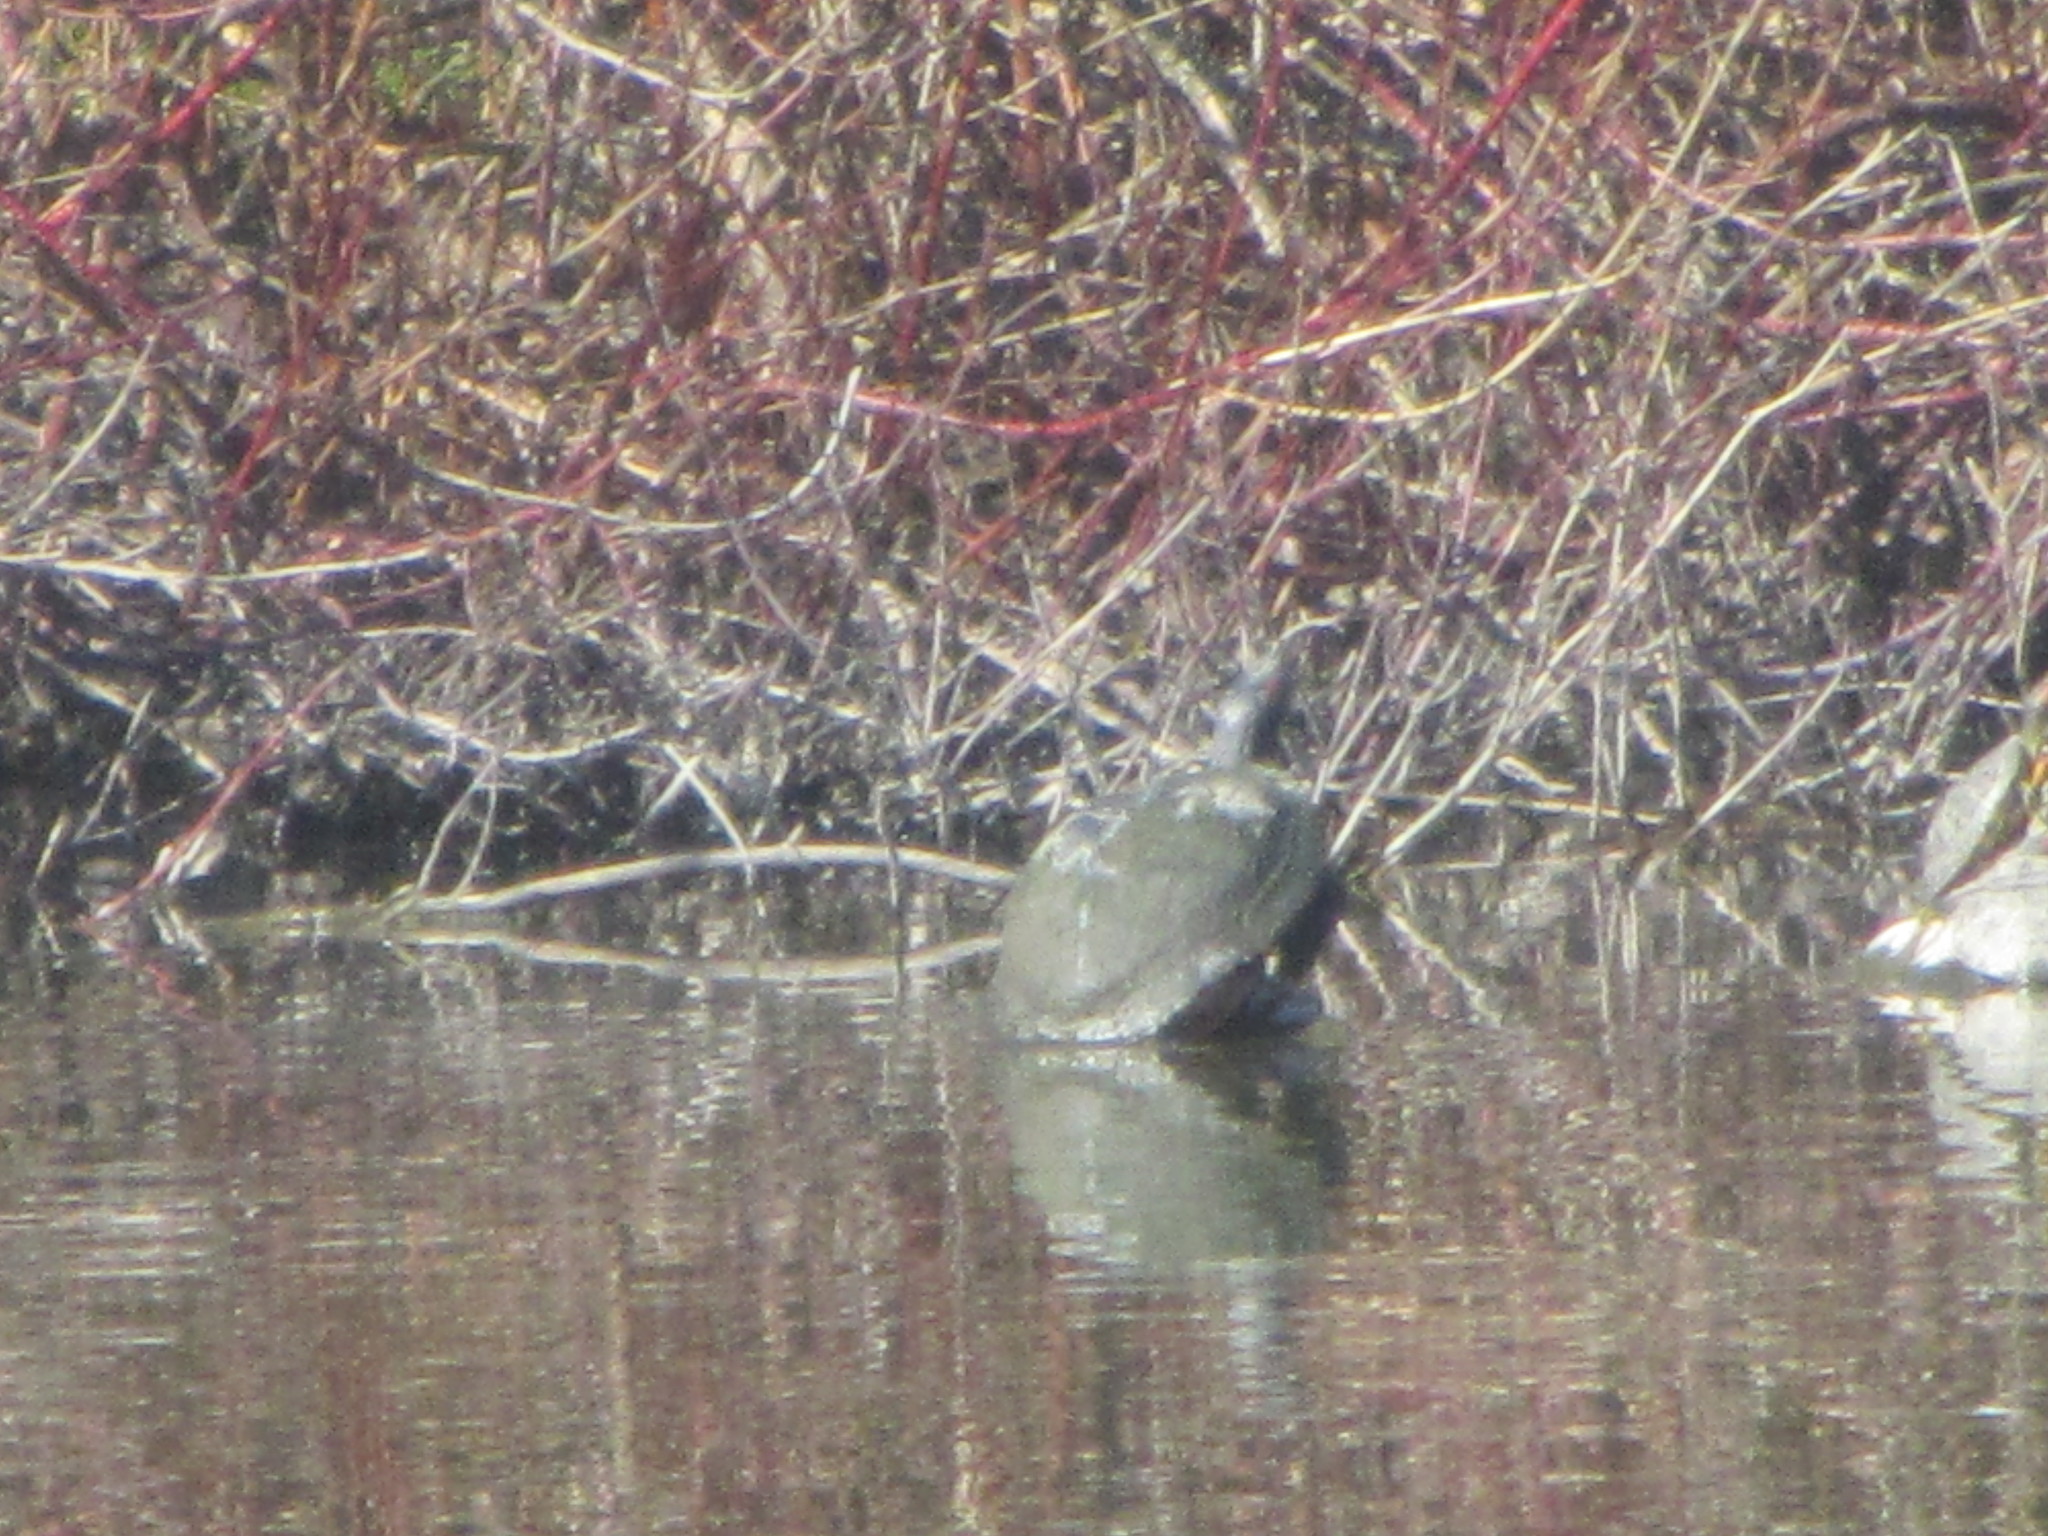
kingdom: Animalia
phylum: Chordata
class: Testudines
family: Emydidae
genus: Trachemys
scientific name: Trachemys scripta
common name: Slider
